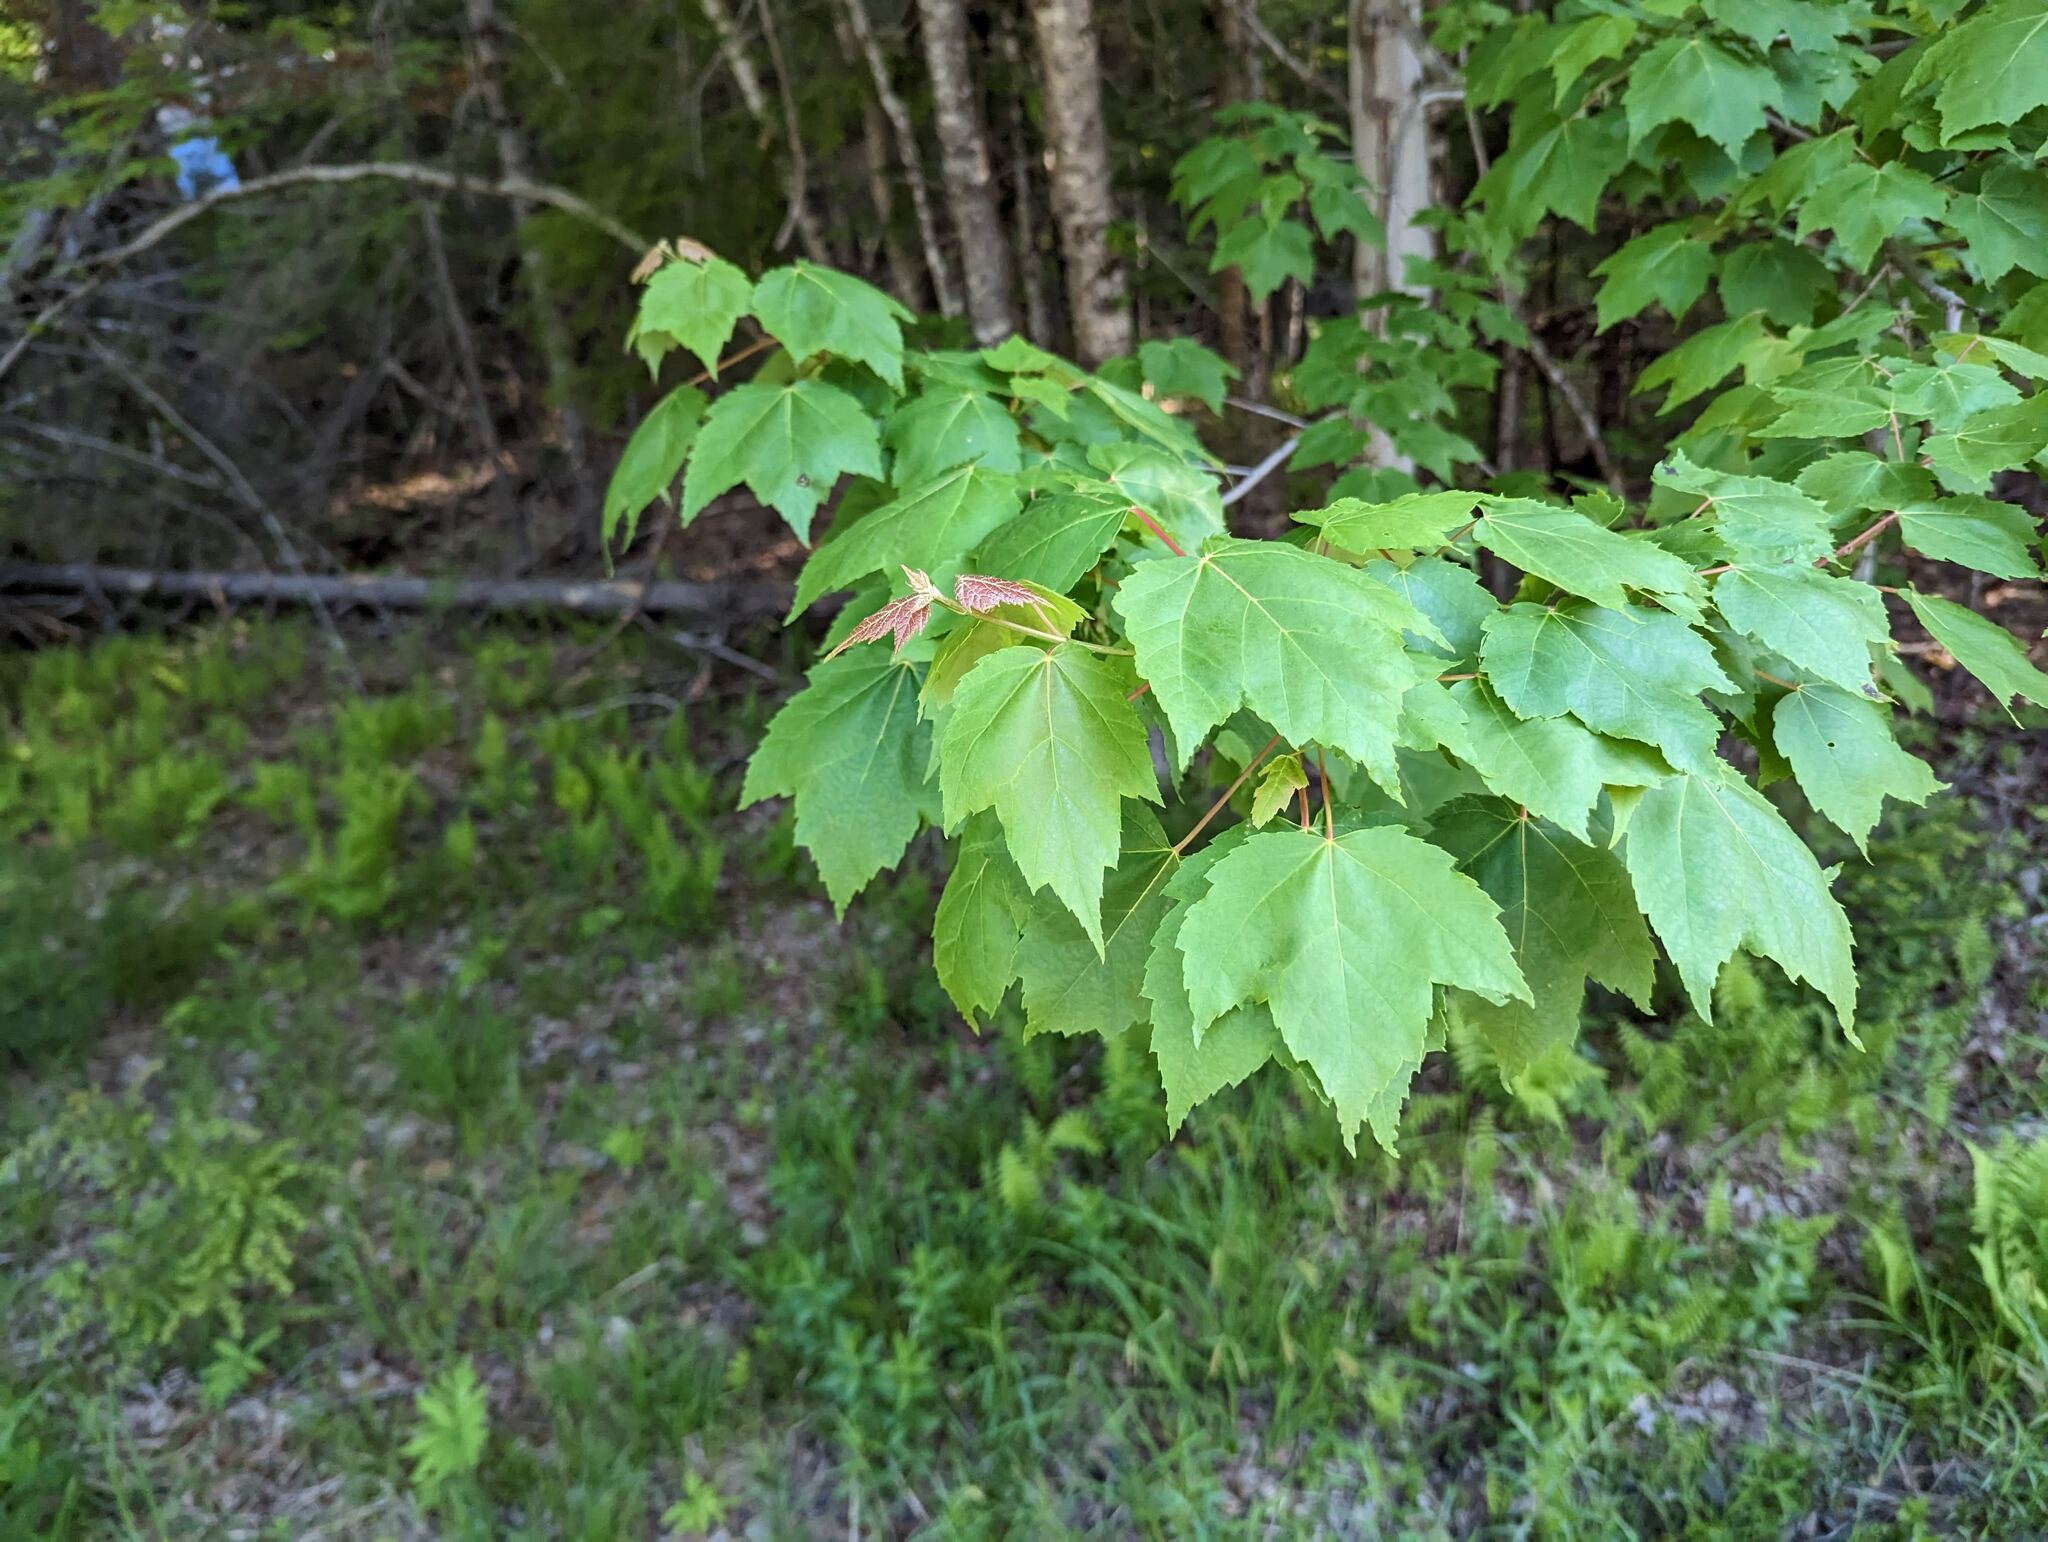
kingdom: Plantae
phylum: Tracheophyta
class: Magnoliopsida
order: Sapindales
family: Sapindaceae
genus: Acer
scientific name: Acer rubrum
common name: Red maple
